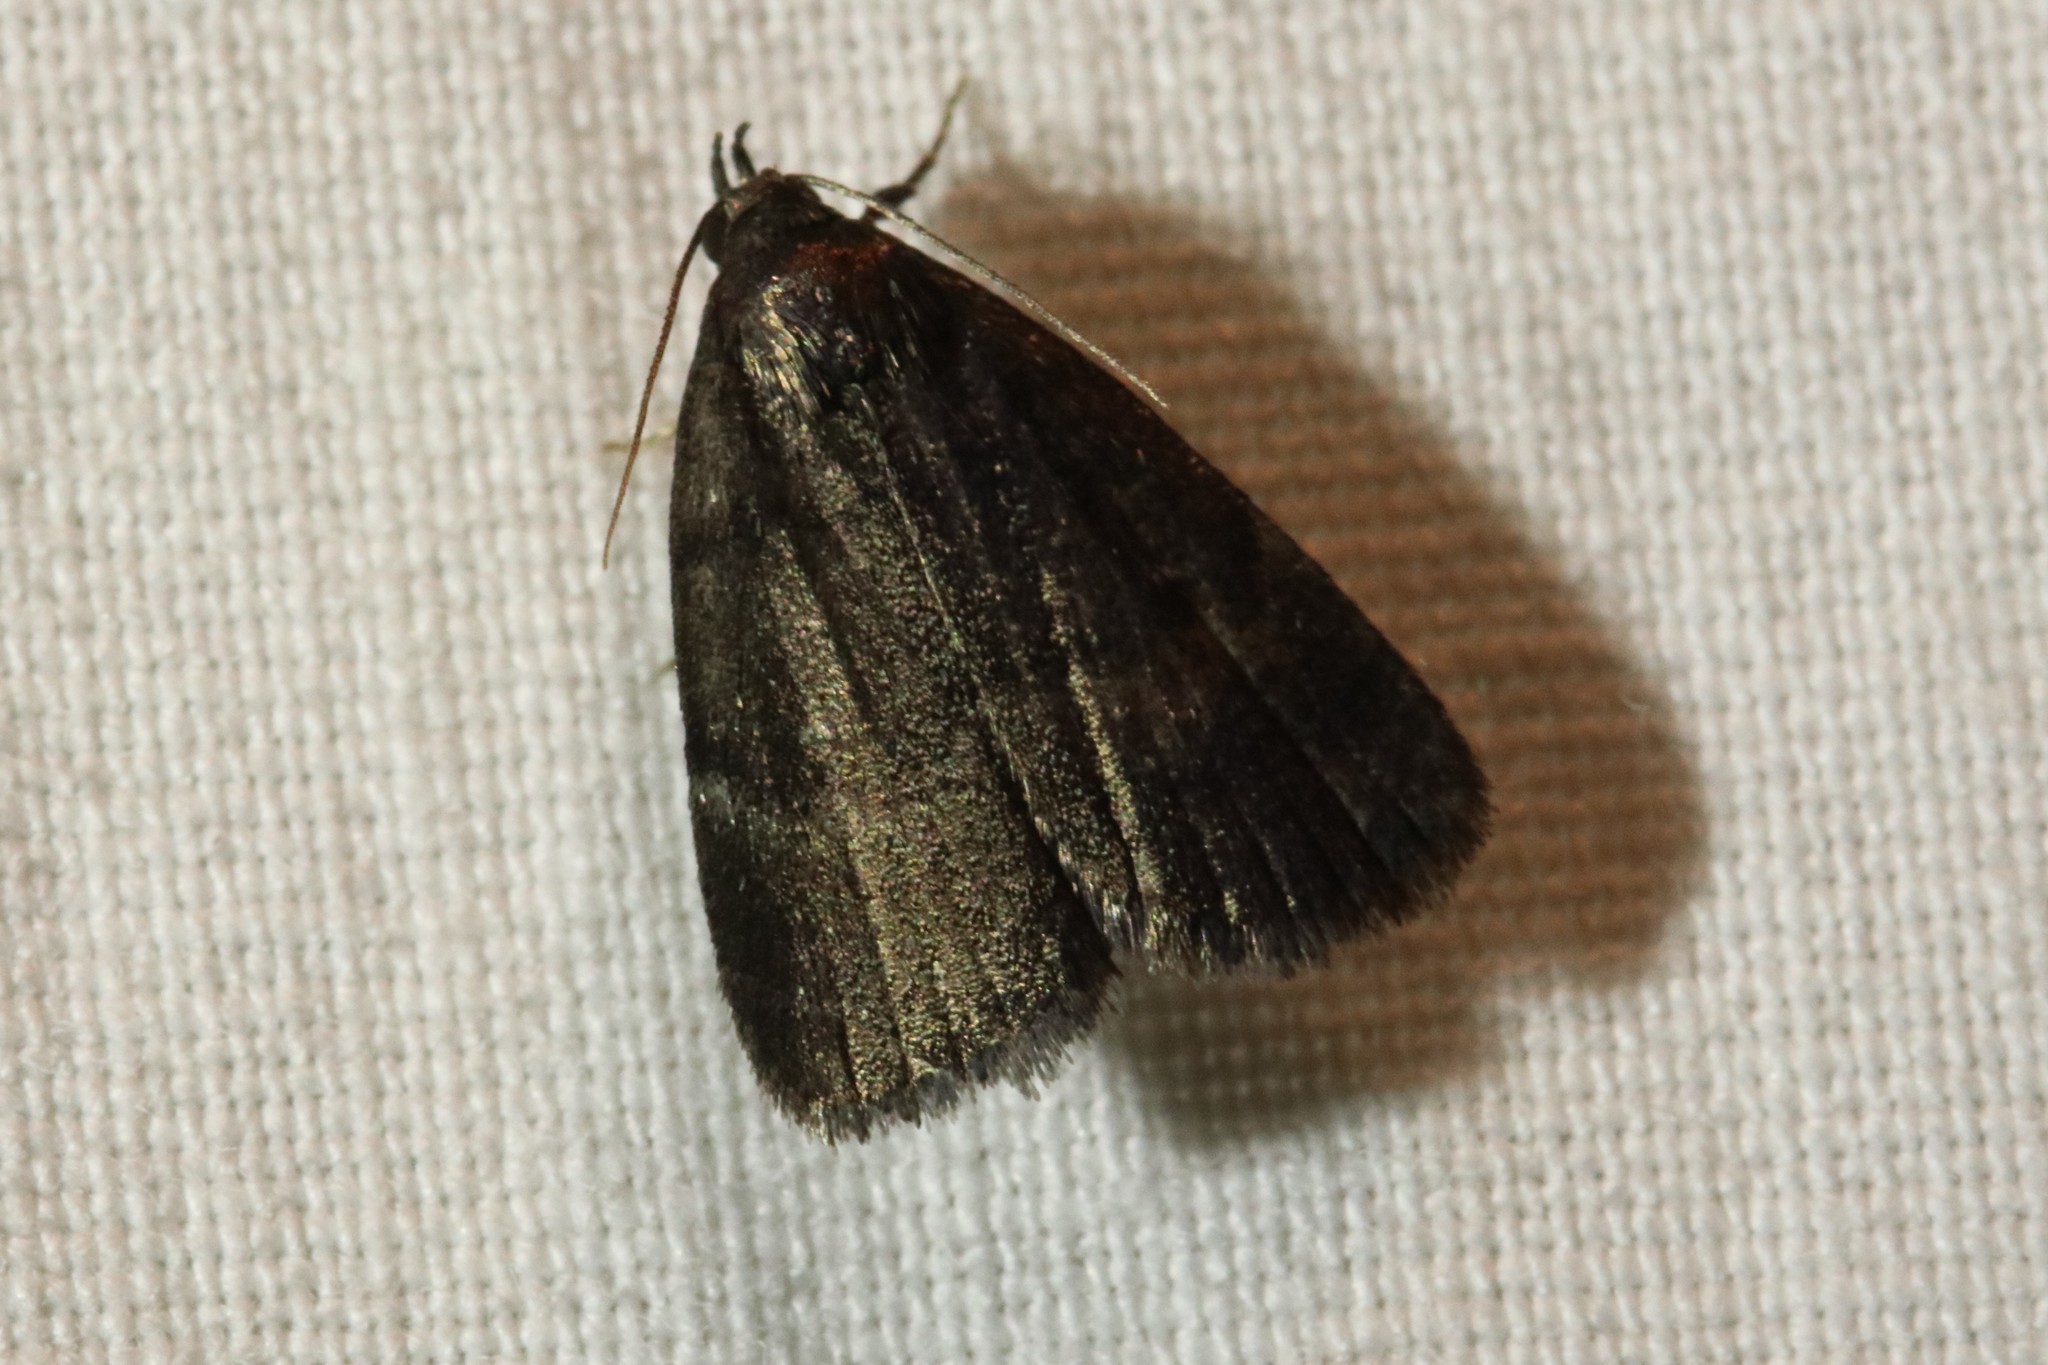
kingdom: Animalia
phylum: Arthropoda
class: Insecta
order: Lepidoptera
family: Erebidae
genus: Idia
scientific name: Idia rotundalis
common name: Rotund idia moth
